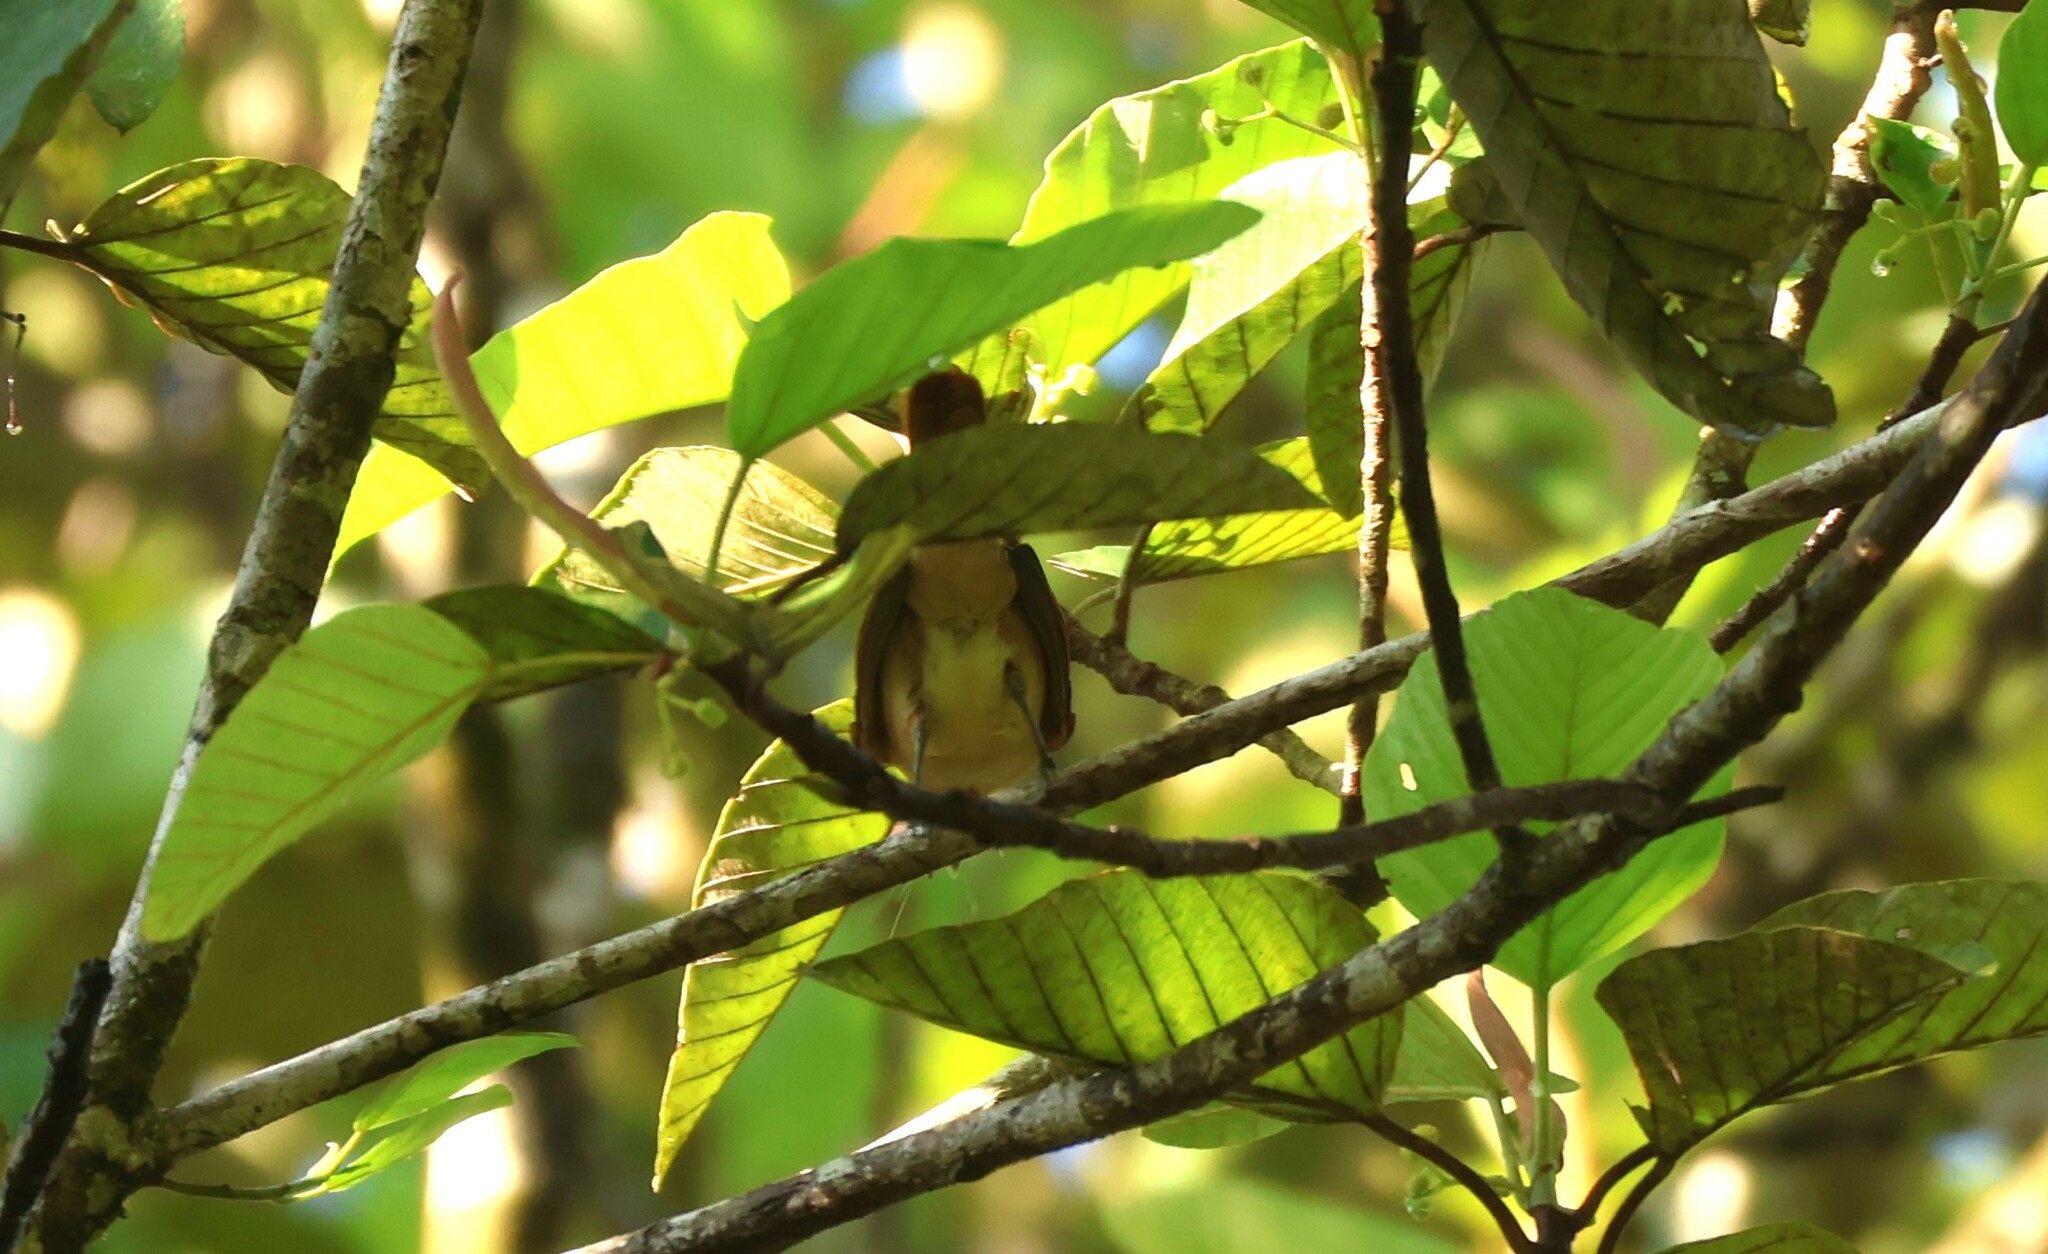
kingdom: Animalia
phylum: Chordata
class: Aves
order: Passeriformes
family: Cotingidae
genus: Pachyramphus
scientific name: Pachyramphus cinnamomeus
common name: Cinnamon becard
